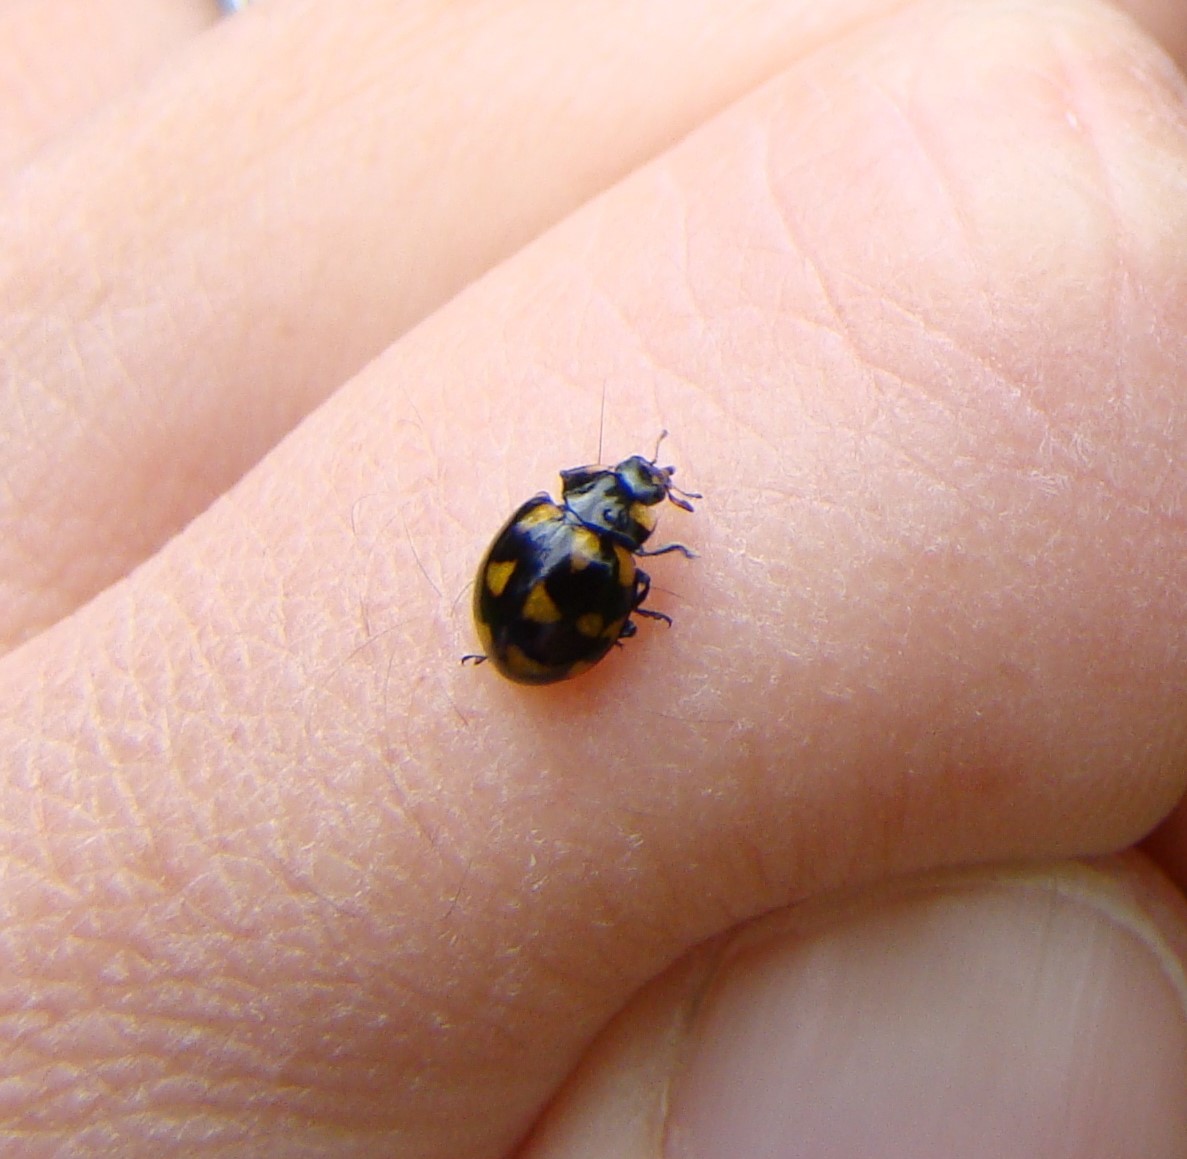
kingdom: Animalia
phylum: Arthropoda
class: Insecta
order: Coleoptera
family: Coccinellidae
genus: Coccinella
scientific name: Coccinella leonina
